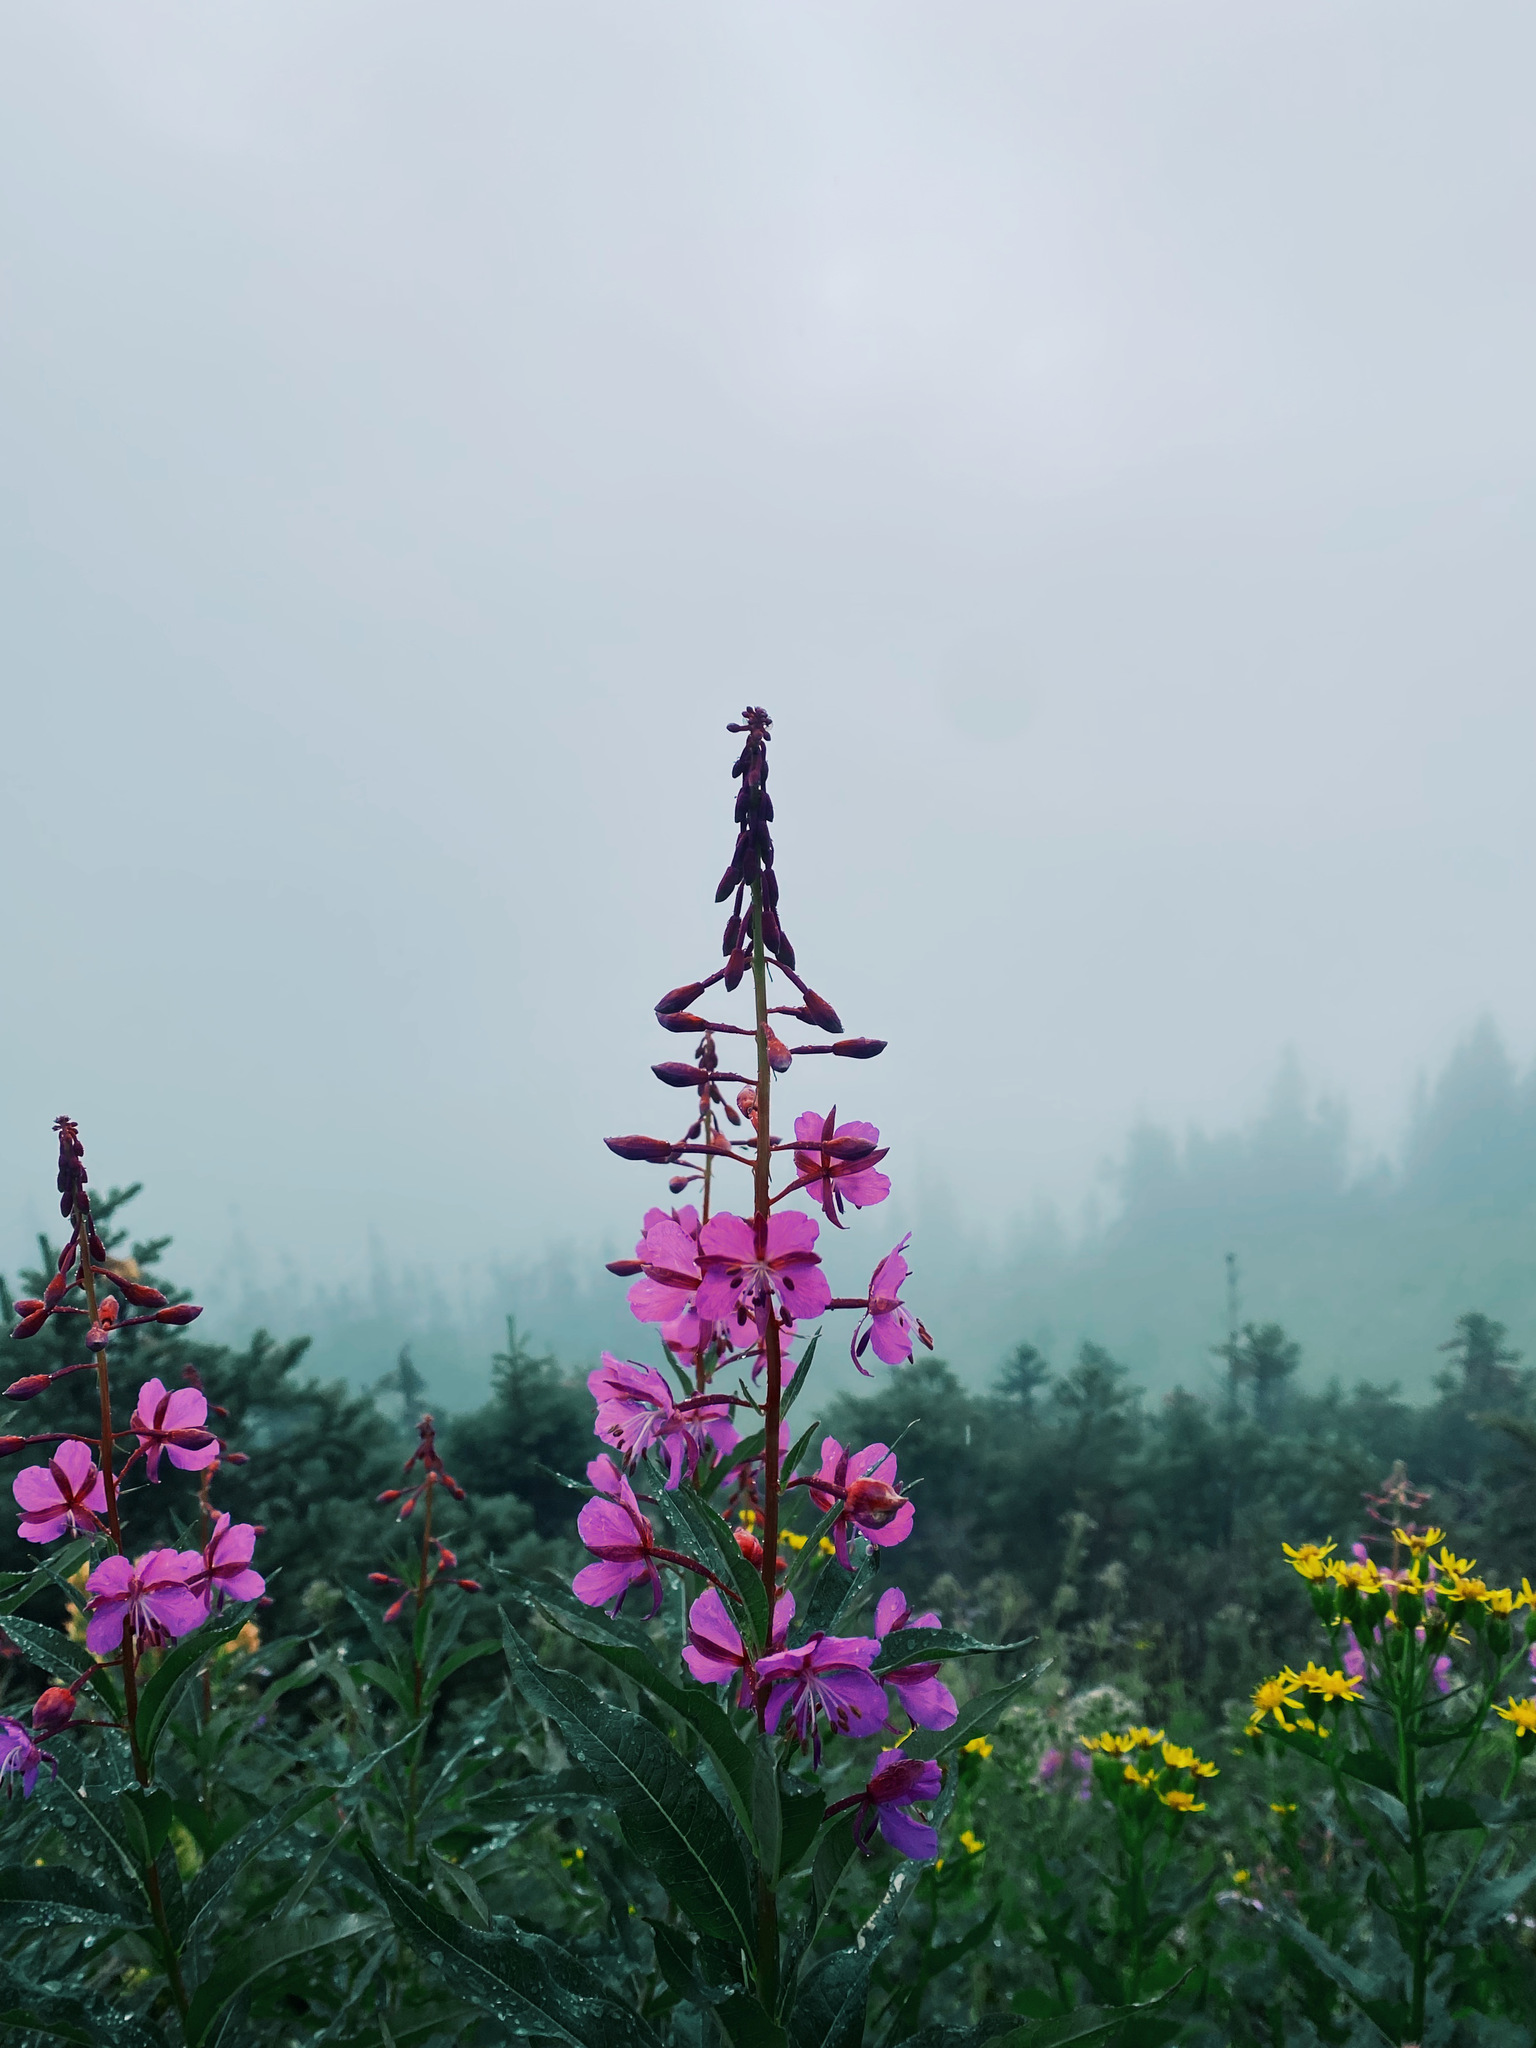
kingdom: Plantae
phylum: Tracheophyta
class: Magnoliopsida
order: Myrtales
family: Onagraceae
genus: Chamaenerion
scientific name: Chamaenerion angustifolium
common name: Fireweed
